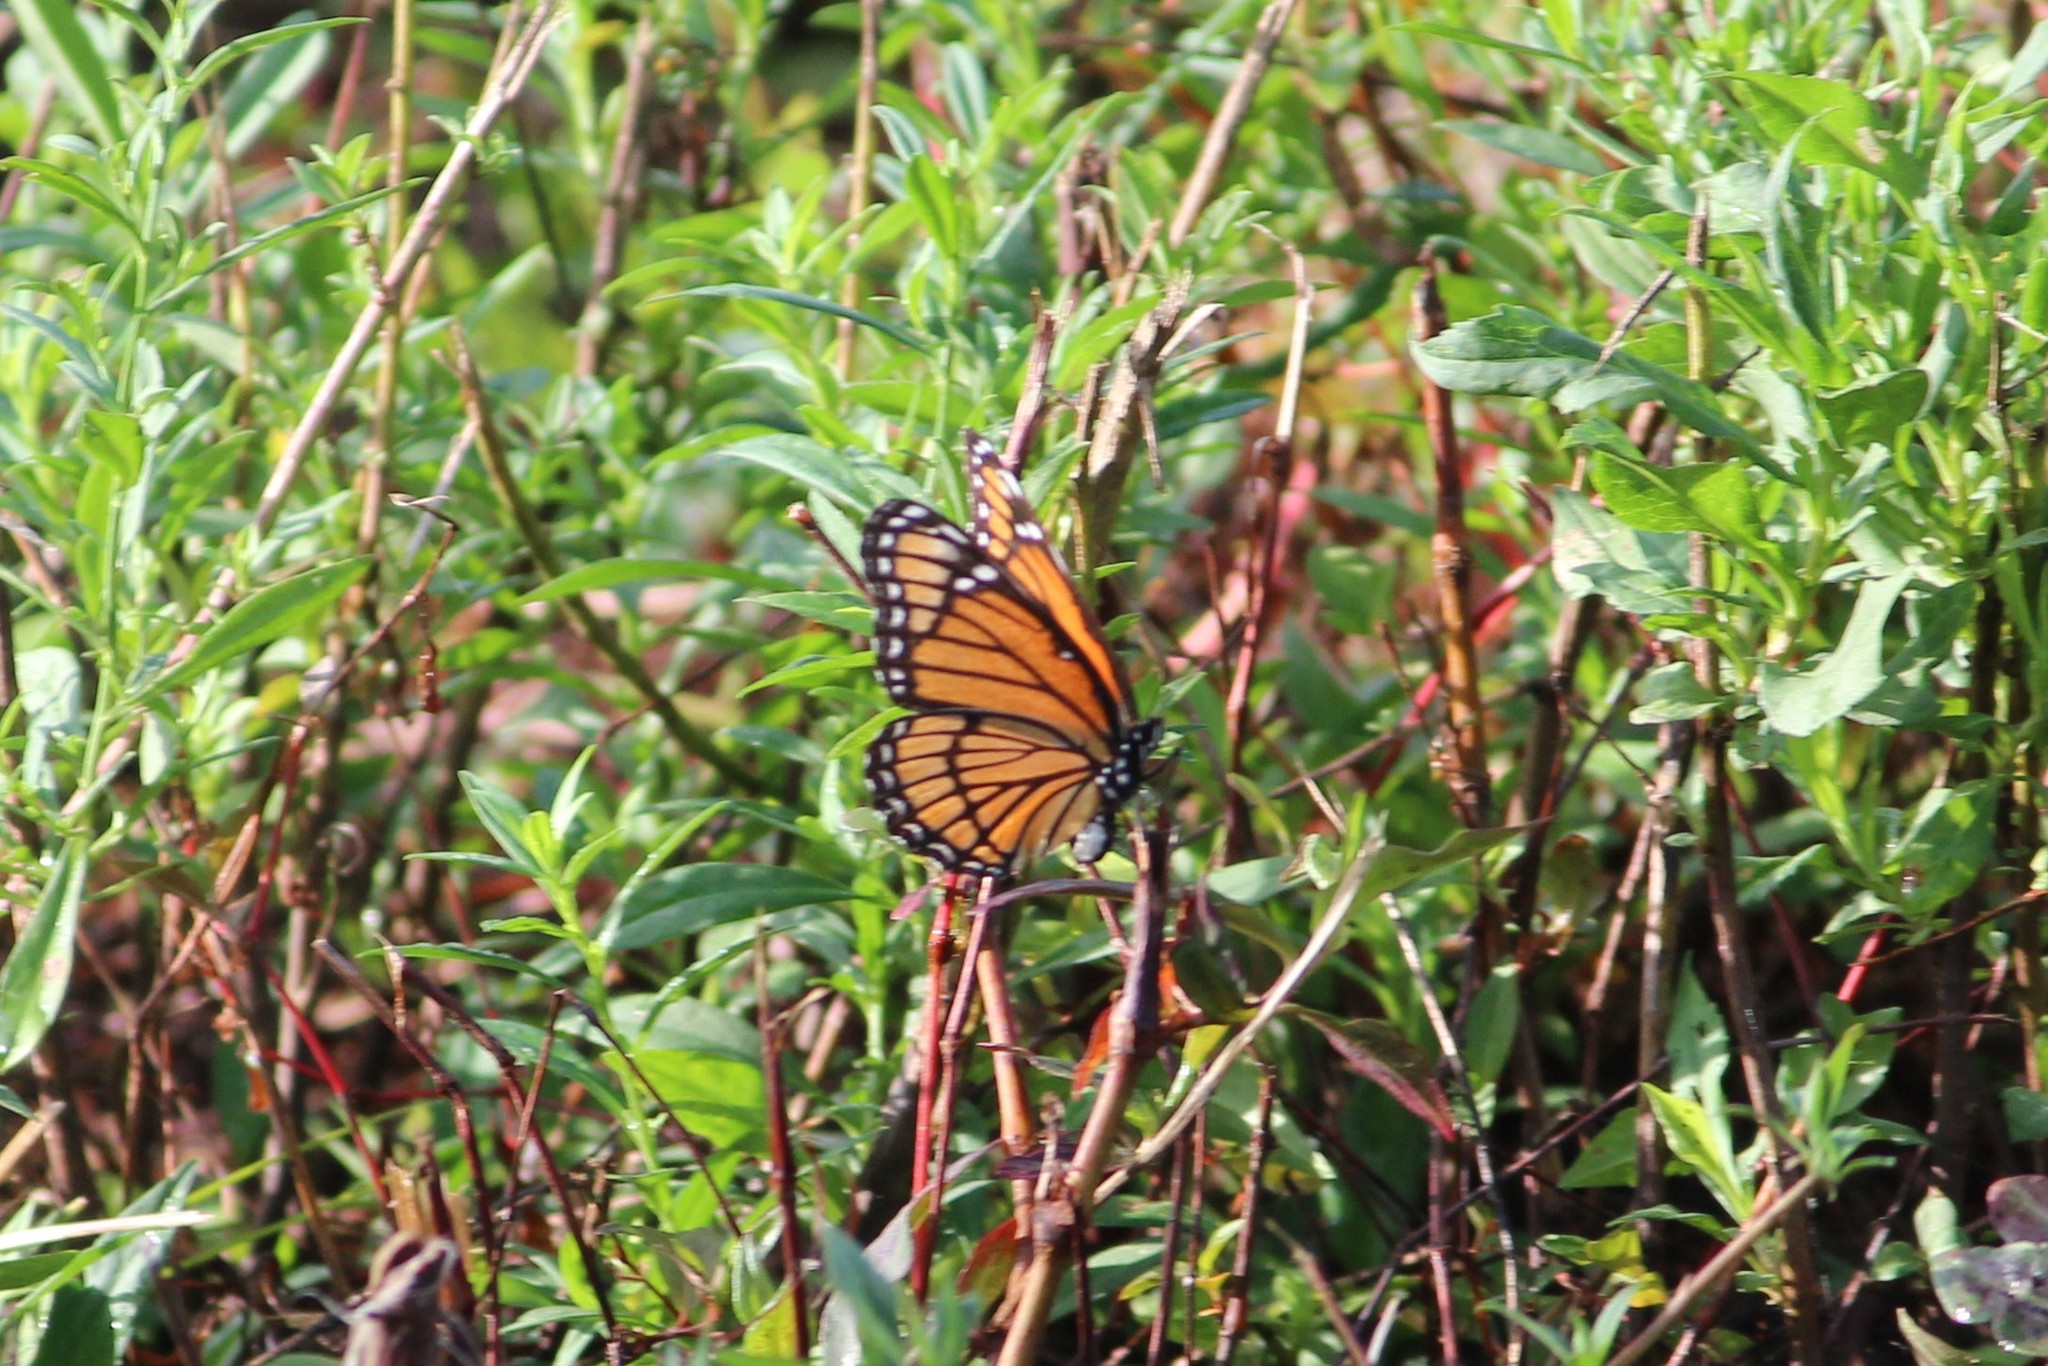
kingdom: Animalia
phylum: Arthropoda
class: Insecta
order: Lepidoptera
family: Nymphalidae
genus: Limenitis
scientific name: Limenitis archippus
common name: Viceroy
